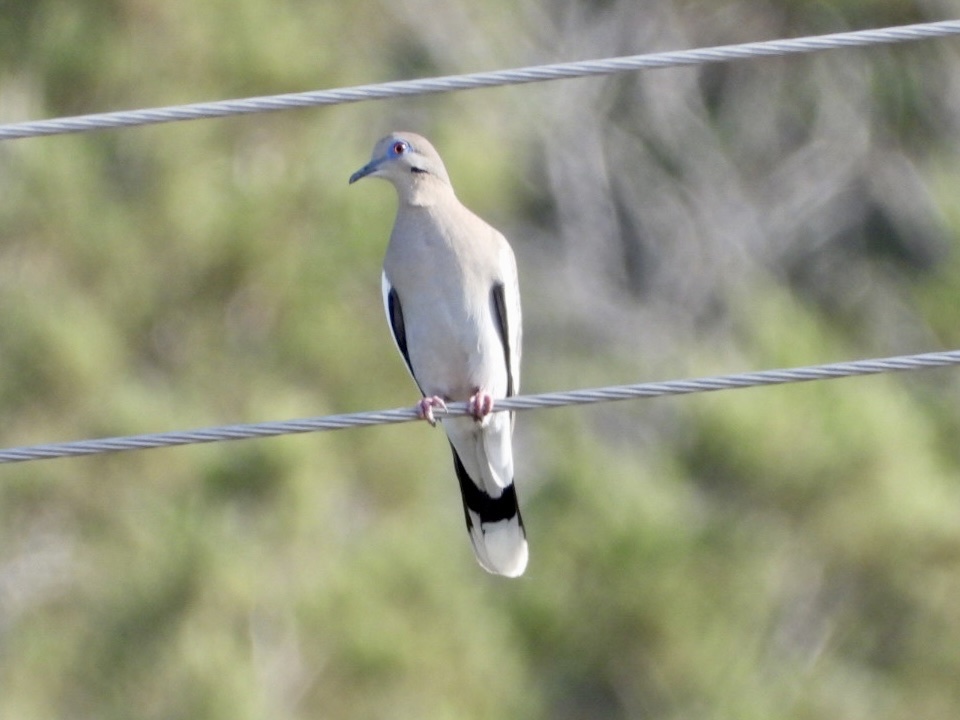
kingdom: Animalia
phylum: Chordata
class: Aves
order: Columbiformes
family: Columbidae
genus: Zenaida
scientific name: Zenaida asiatica
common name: White-winged dove
